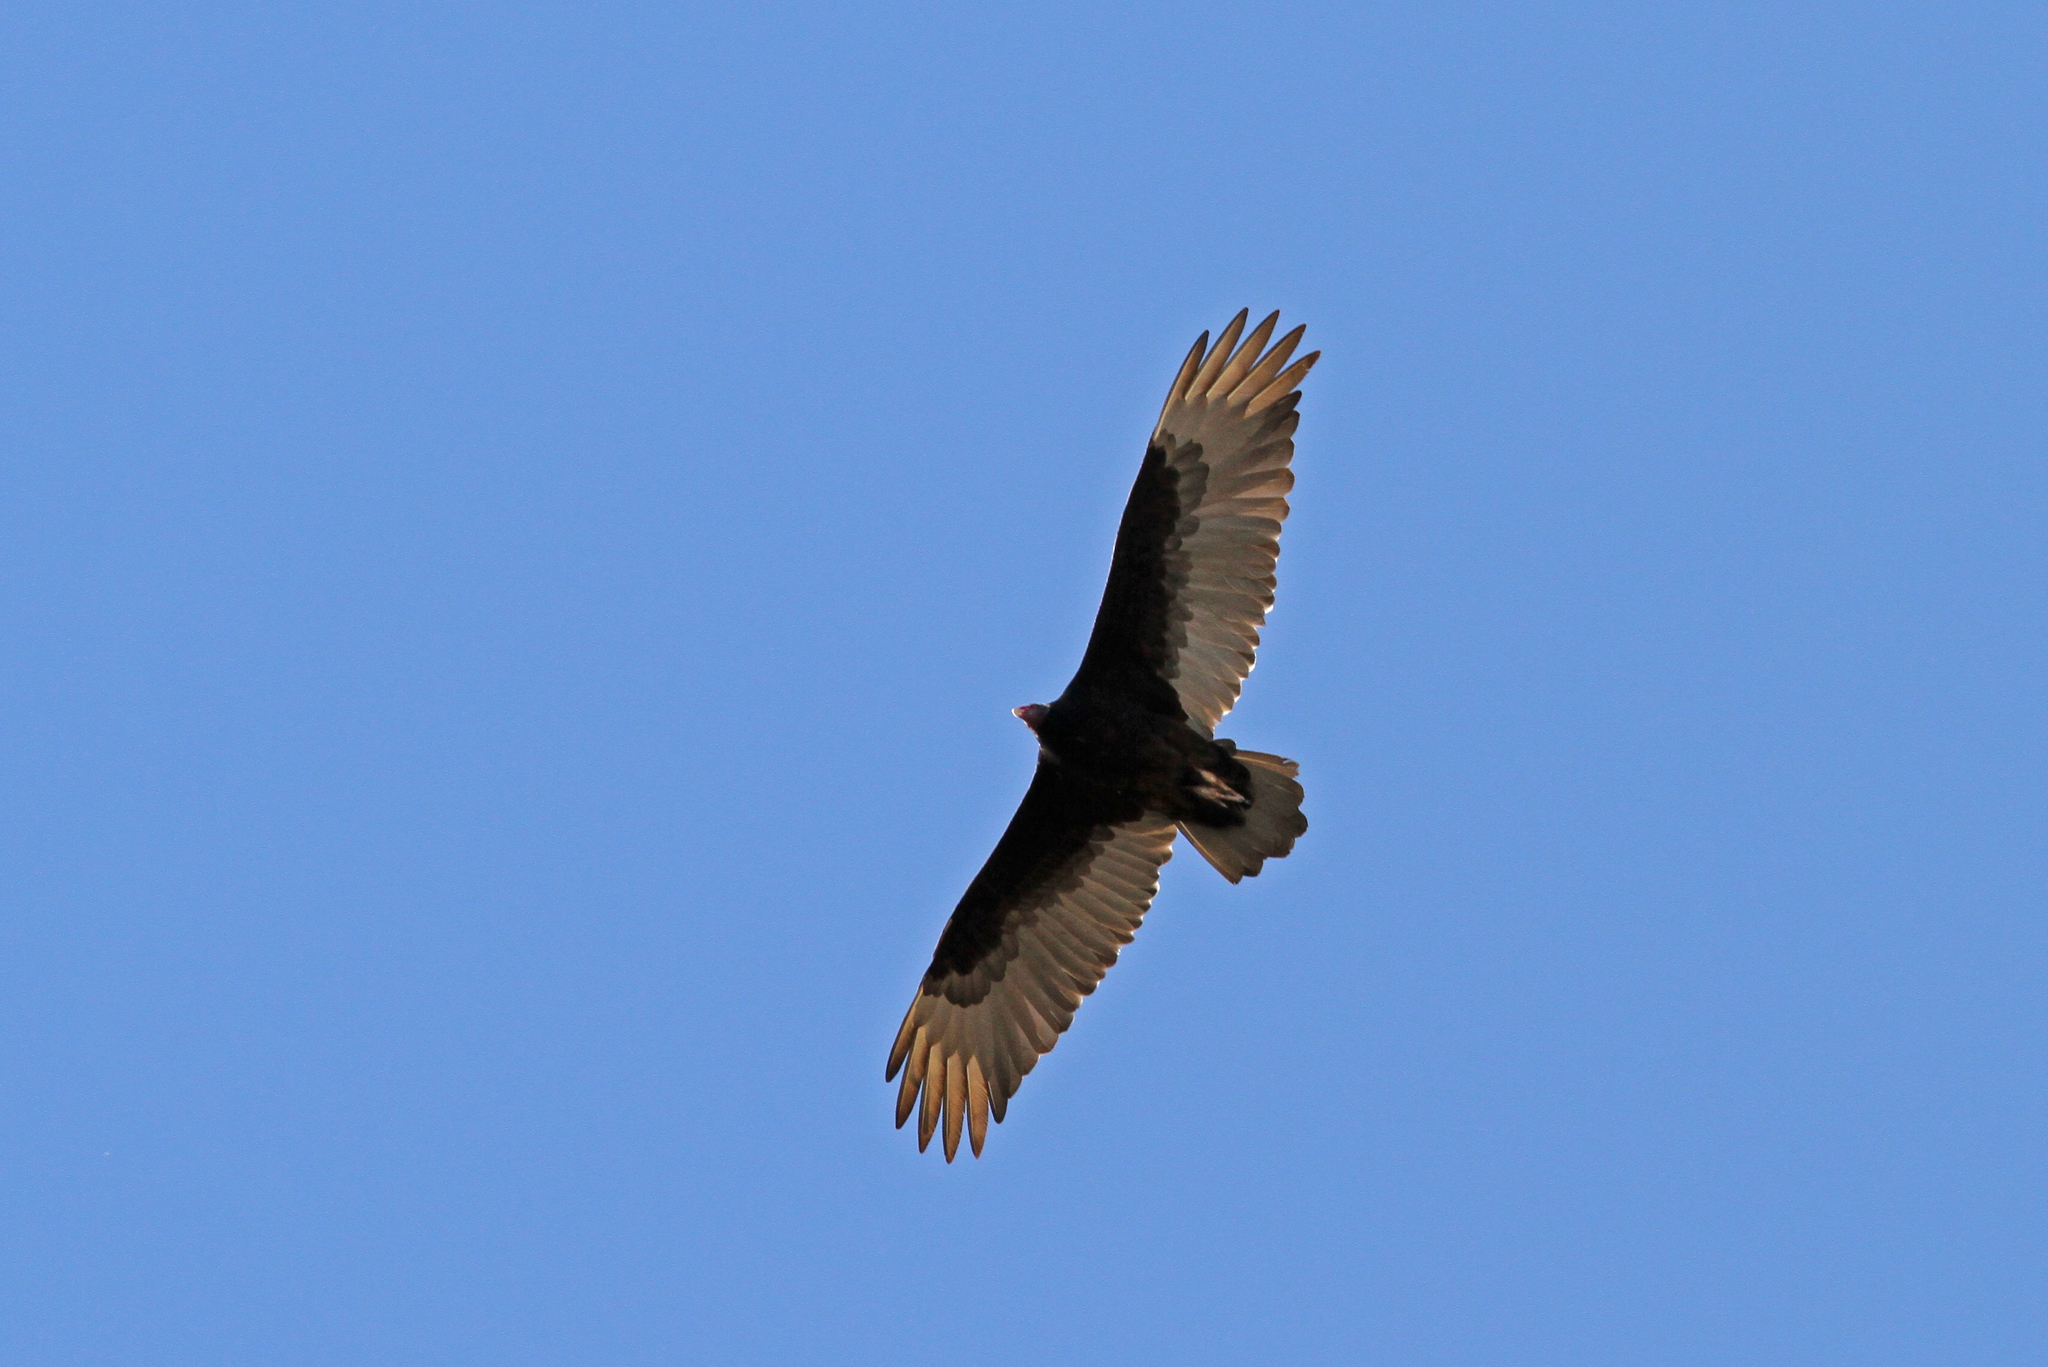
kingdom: Animalia
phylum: Chordata
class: Aves
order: Accipitriformes
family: Cathartidae
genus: Cathartes
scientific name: Cathartes aura
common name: Turkey vulture
